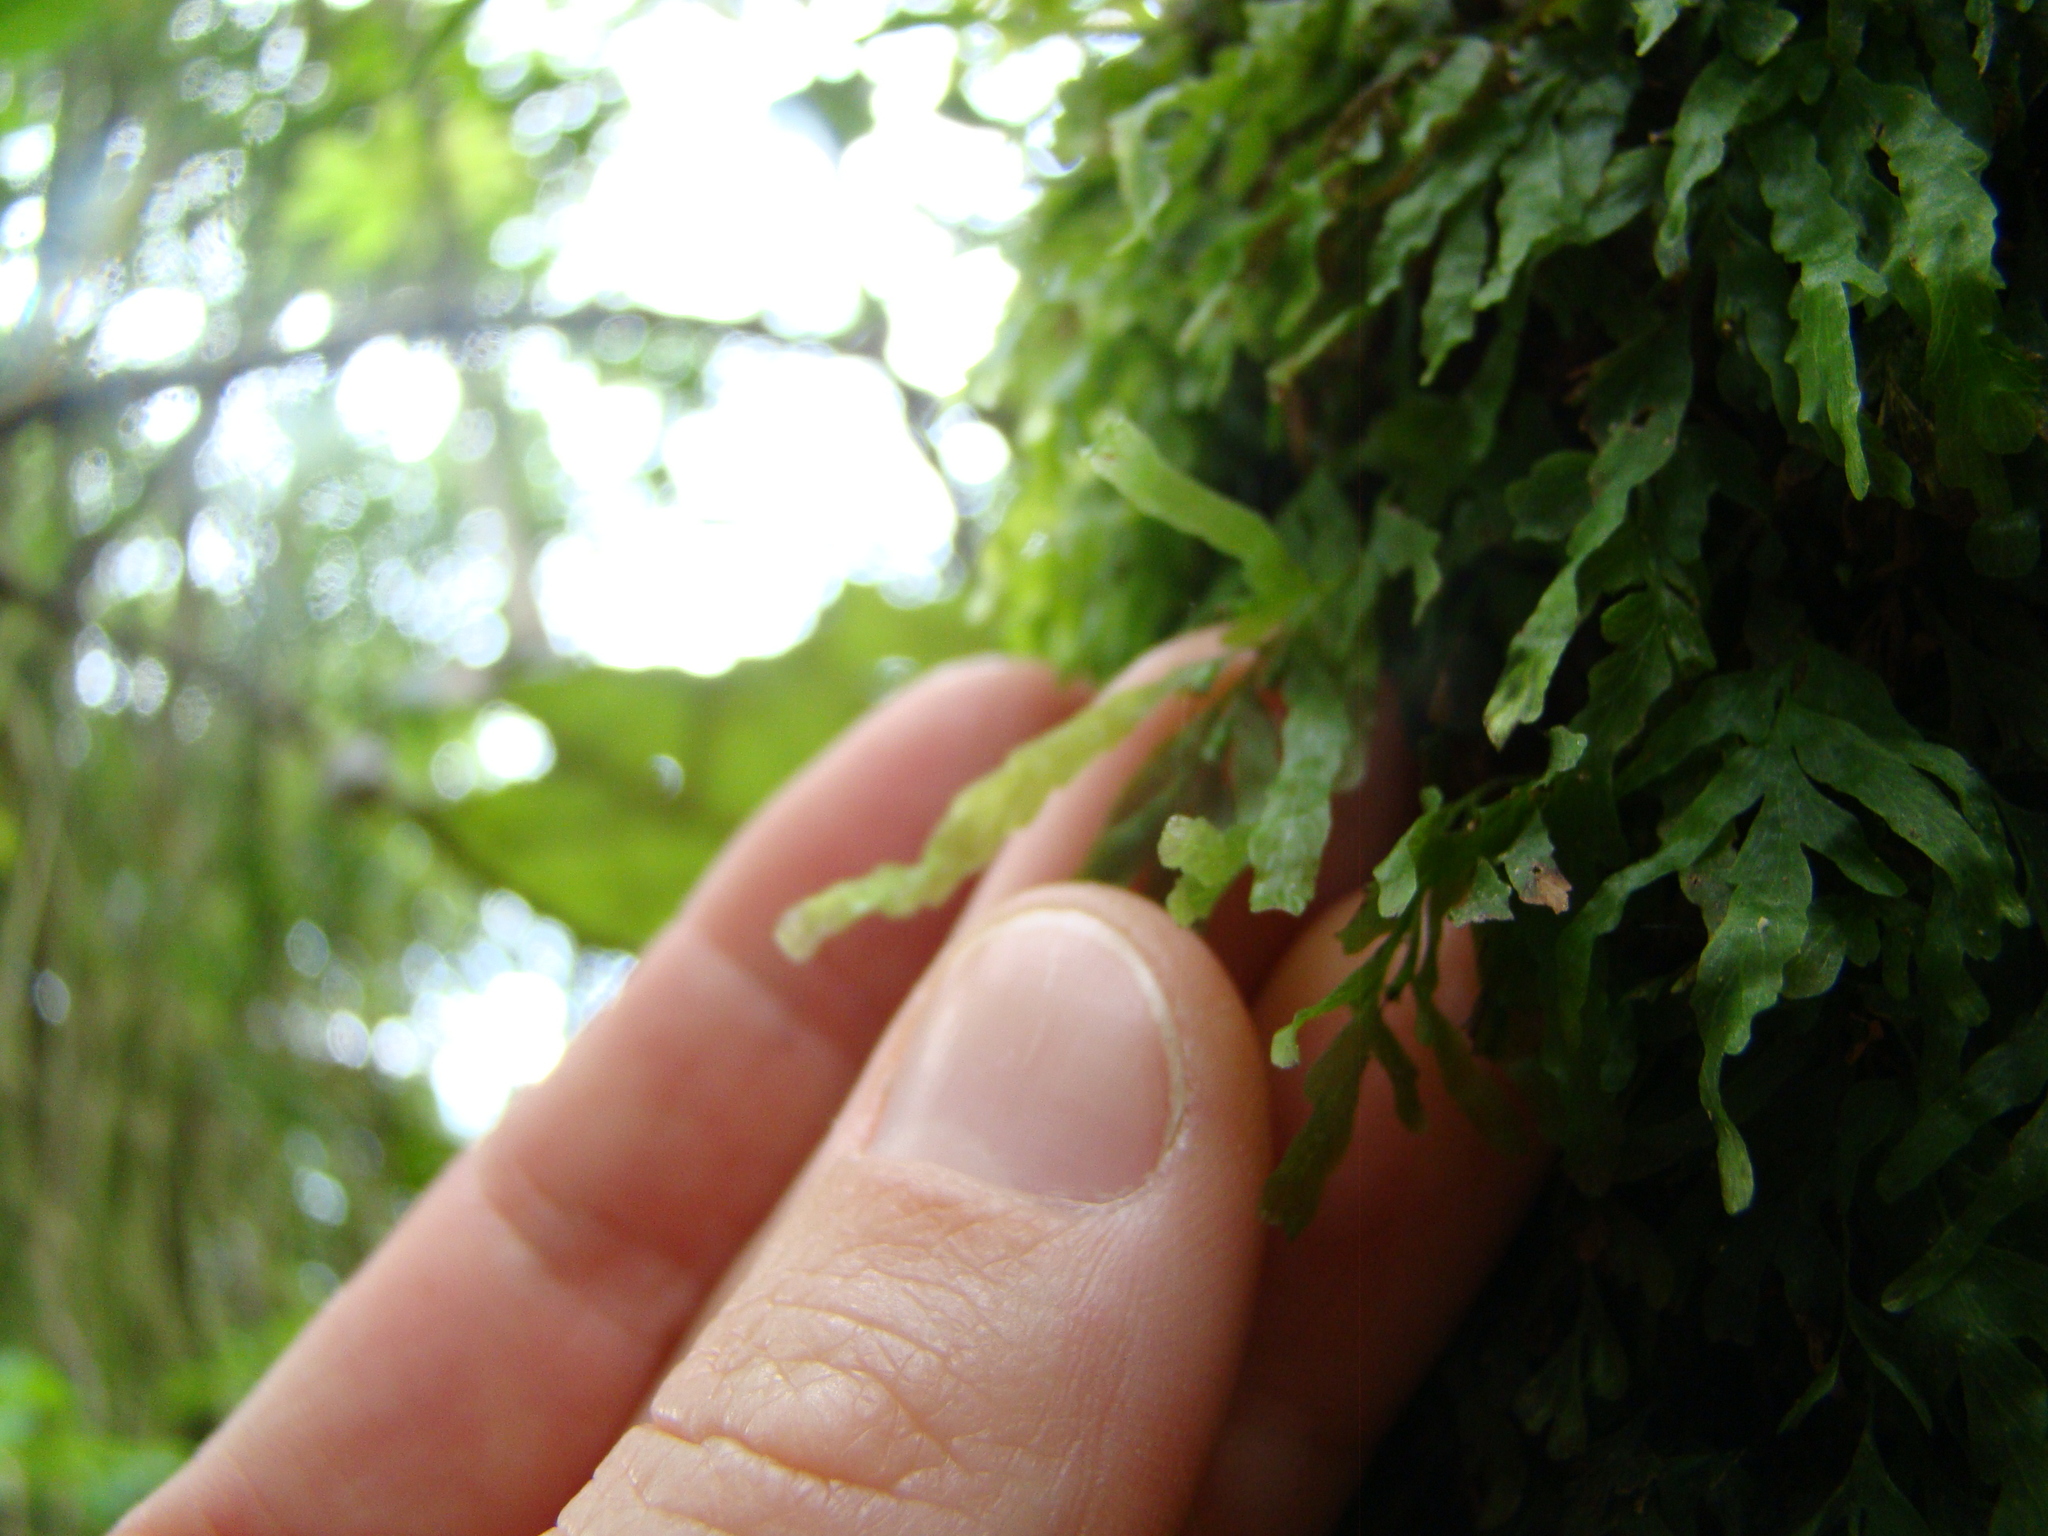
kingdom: Plantae
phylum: Tracheophyta
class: Polypodiopsida
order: Hymenophyllales
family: Hymenophyllaceae
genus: Polyphlebium
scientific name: Polyphlebium venosum
